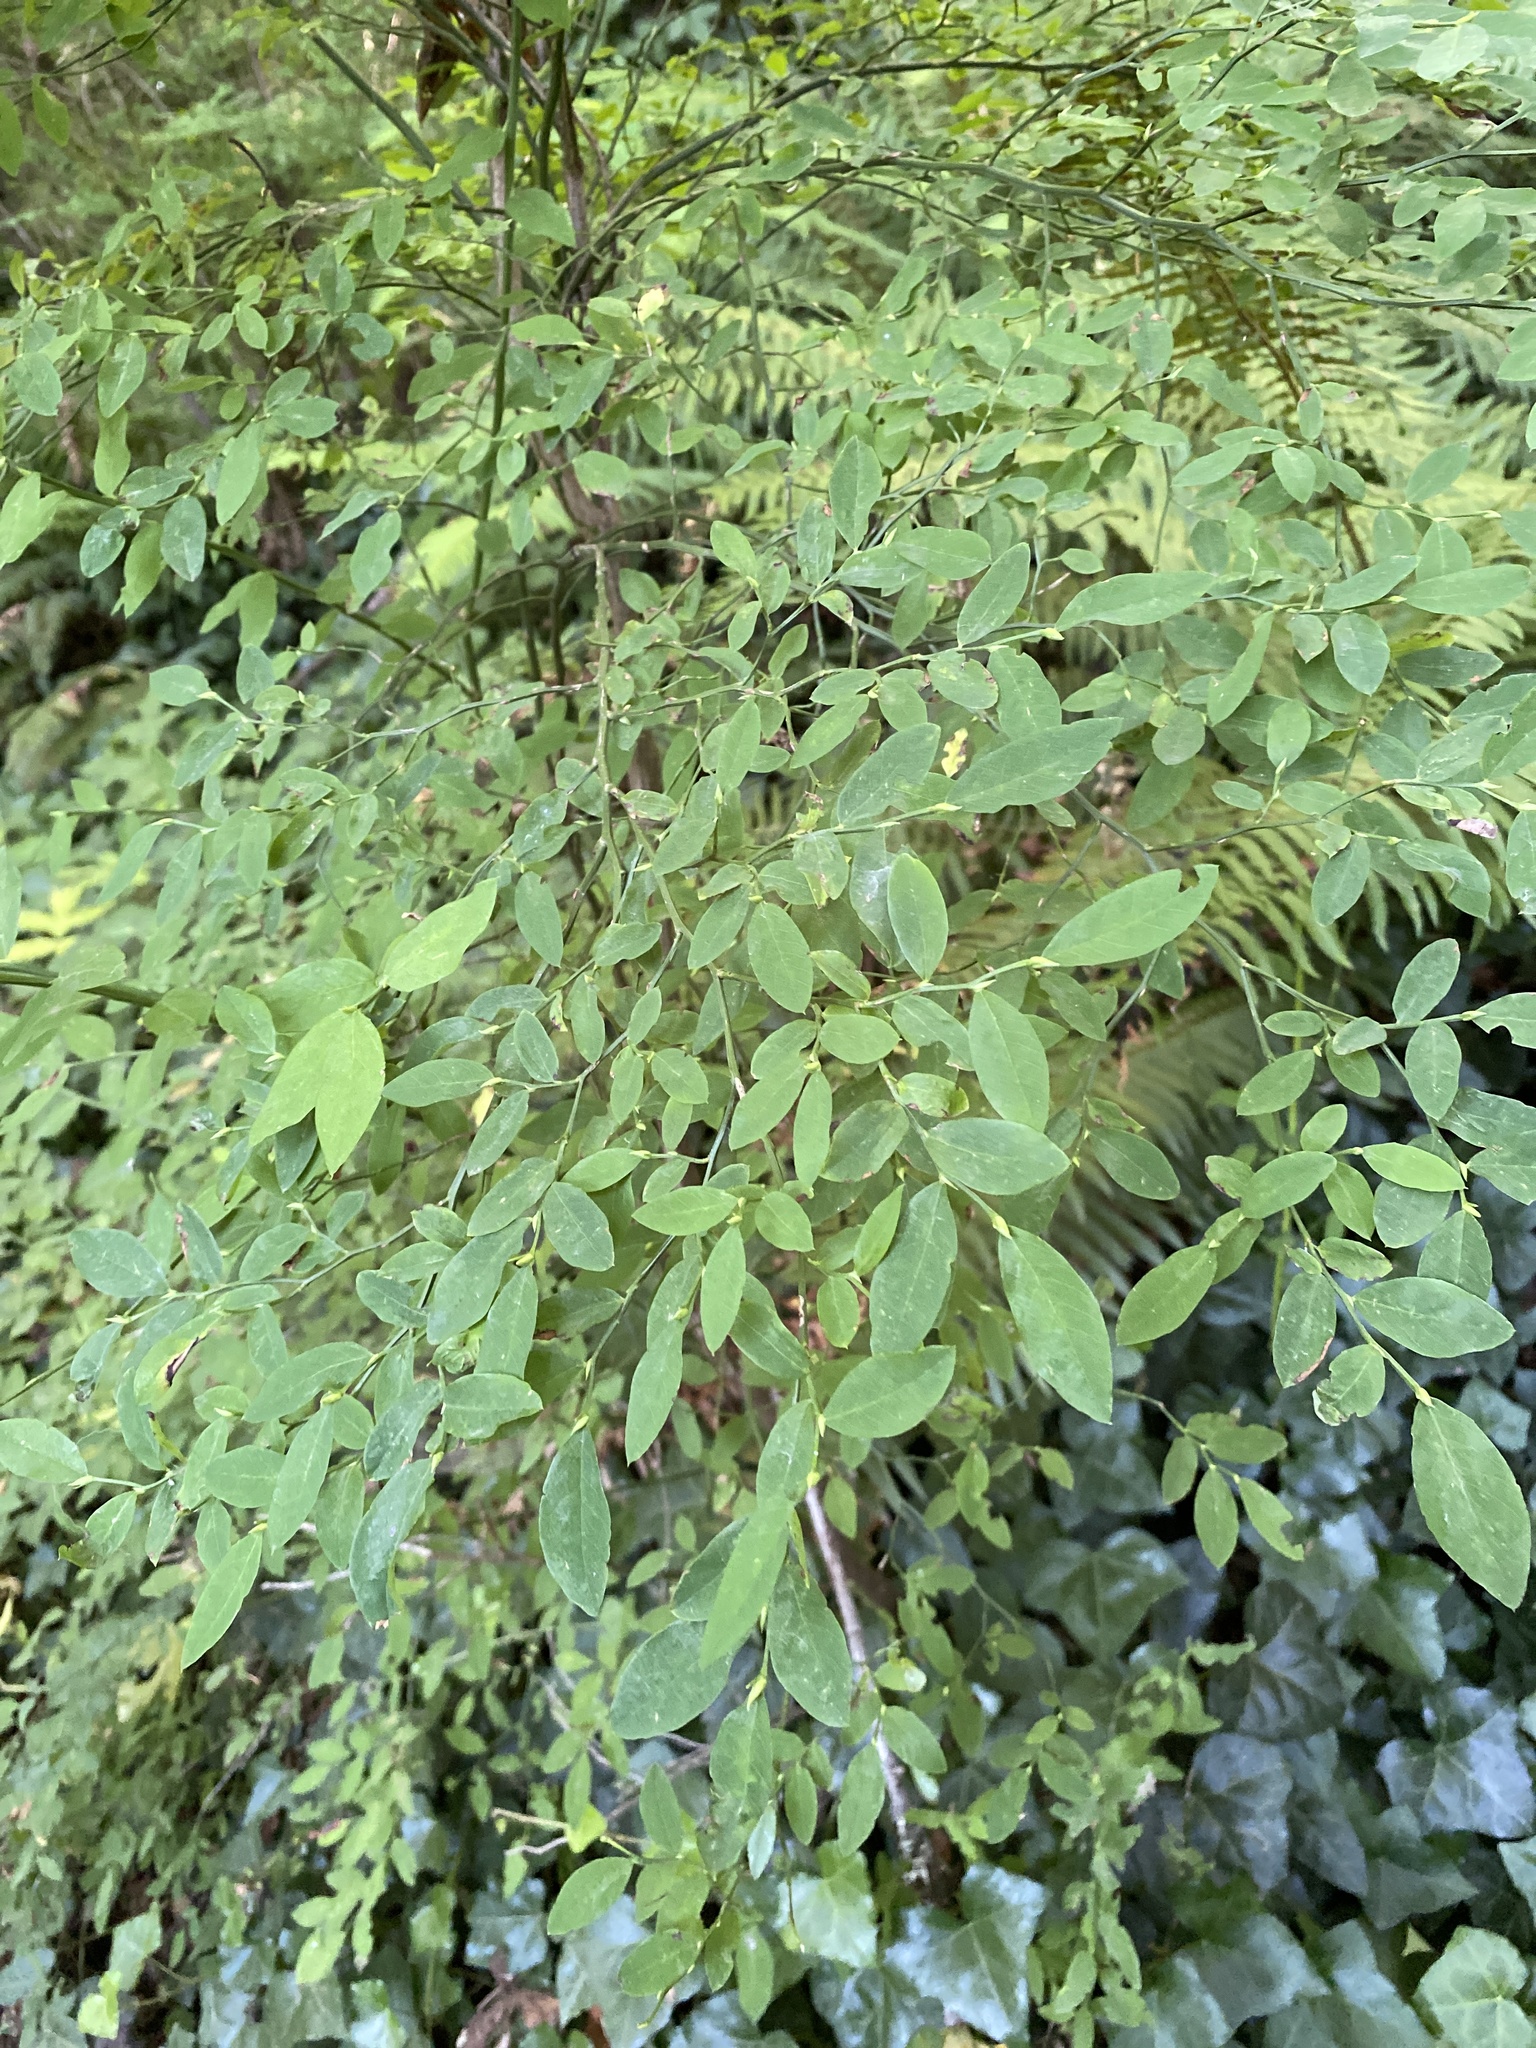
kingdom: Plantae
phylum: Tracheophyta
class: Magnoliopsida
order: Ericales
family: Ericaceae
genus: Vaccinium
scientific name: Vaccinium parvifolium
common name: Red-huckleberry
